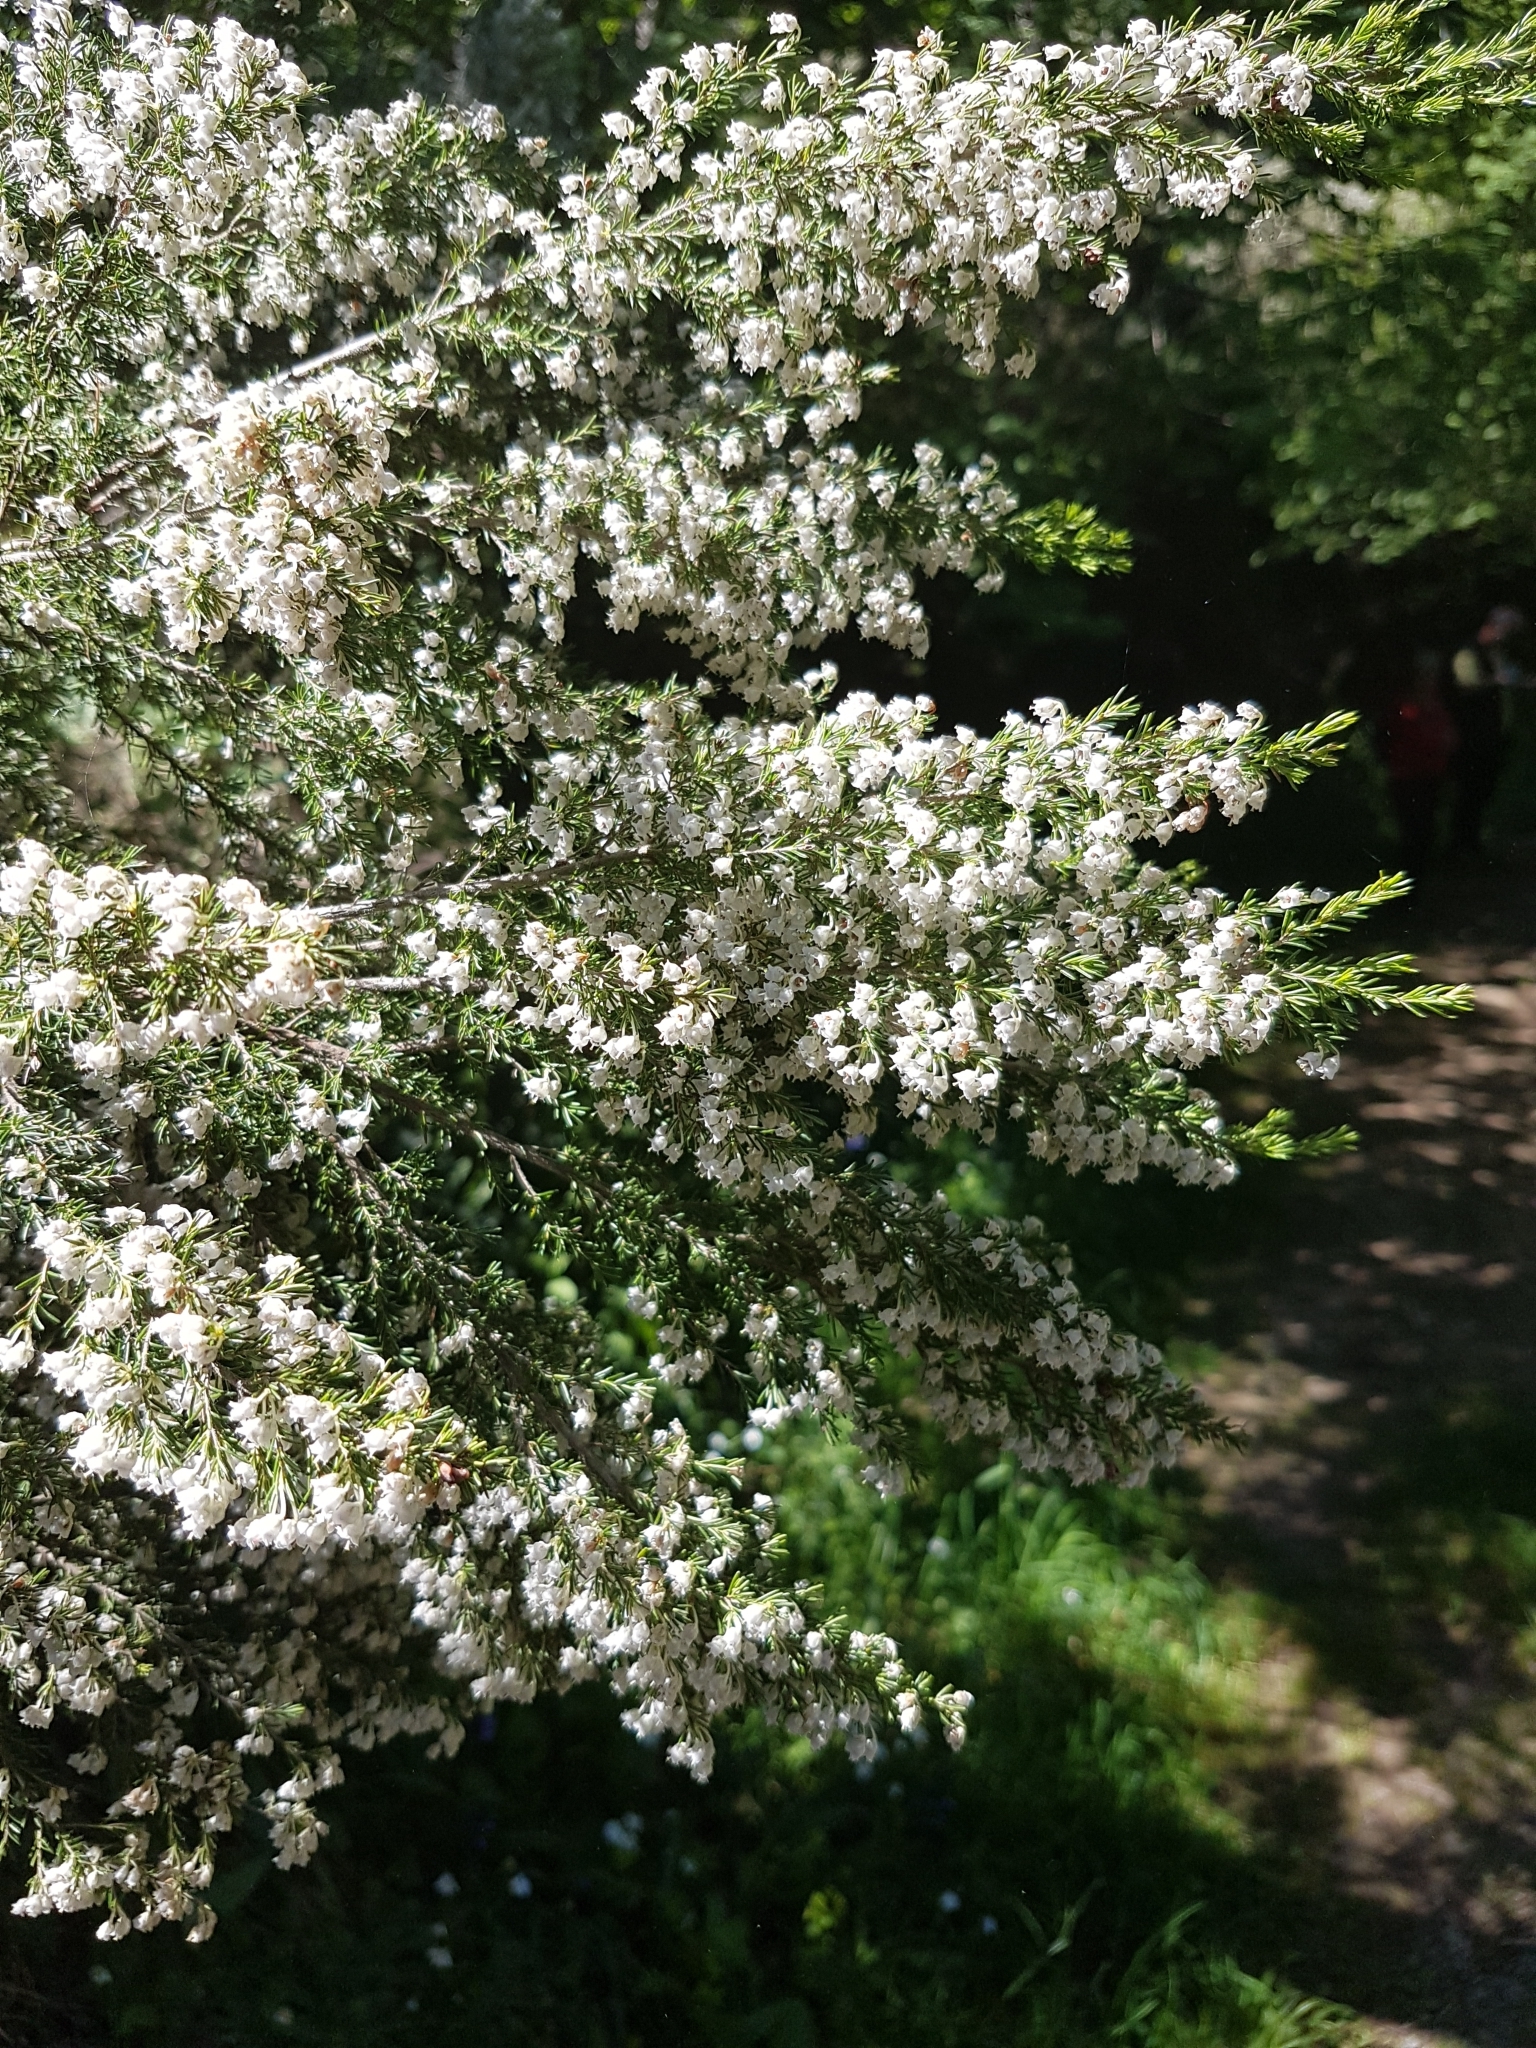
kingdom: Plantae
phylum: Tracheophyta
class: Magnoliopsida
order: Ericales
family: Ericaceae
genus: Erica
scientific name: Erica arborea
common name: Tree heath
